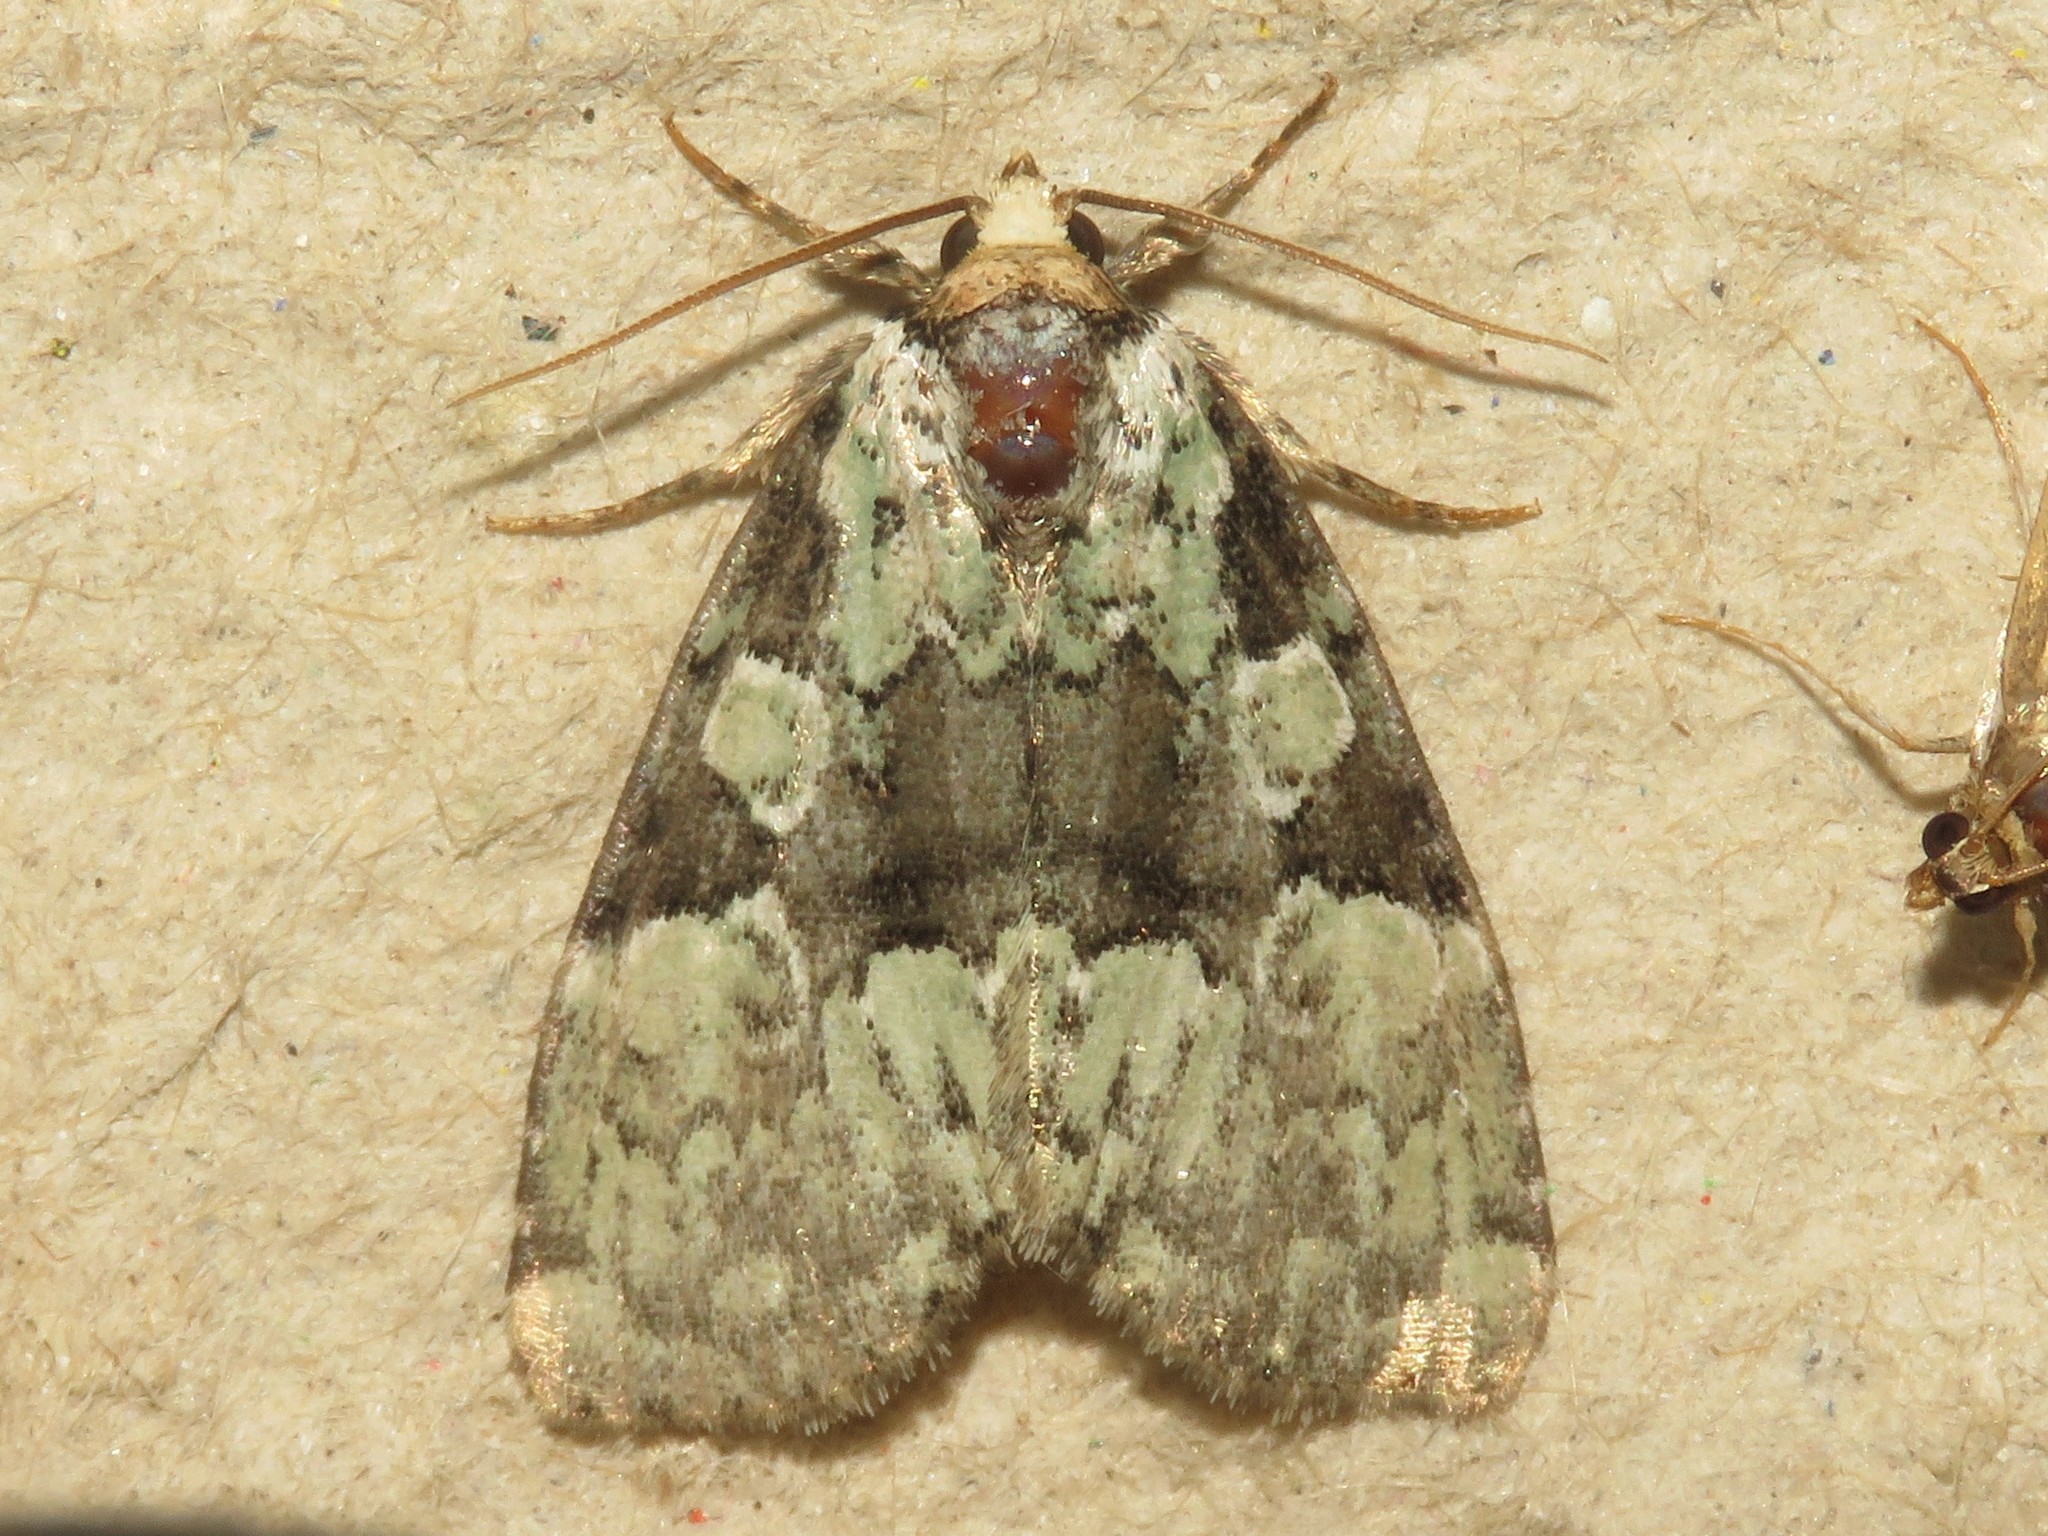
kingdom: Animalia
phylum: Arthropoda
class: Insecta
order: Lepidoptera
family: Noctuidae
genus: Leuconycta
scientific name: Leuconycta lepidula
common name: Marbled-green leuconycta moth
